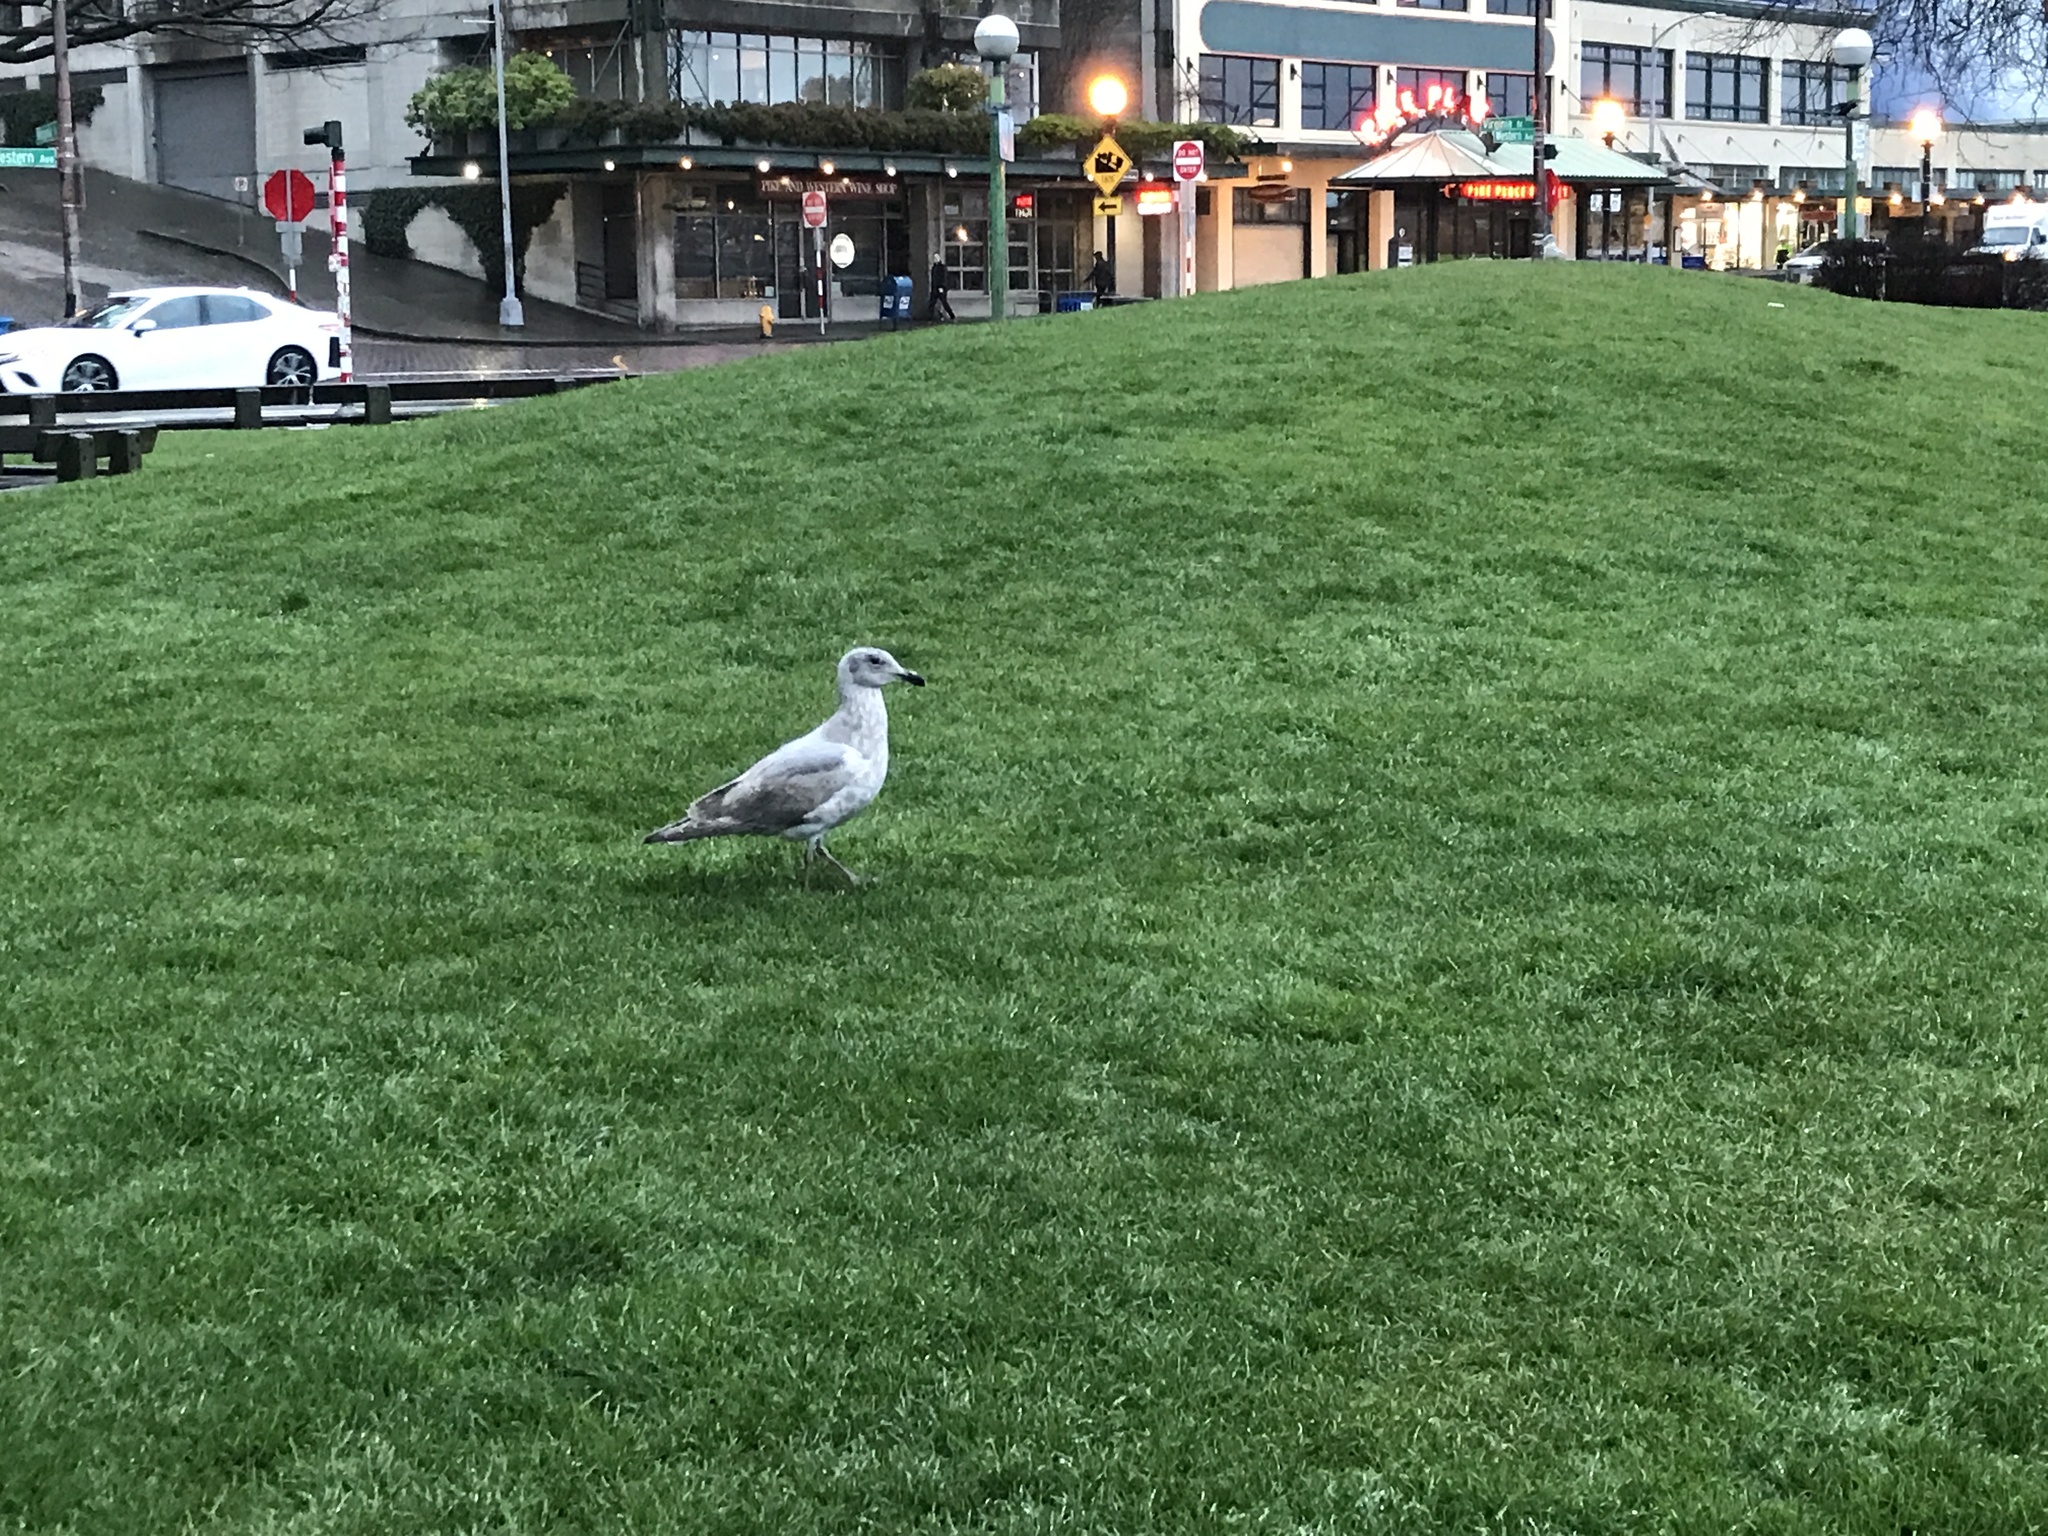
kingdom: Animalia
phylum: Chordata
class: Aves
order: Charadriiformes
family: Laridae
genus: Larus
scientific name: Larus
